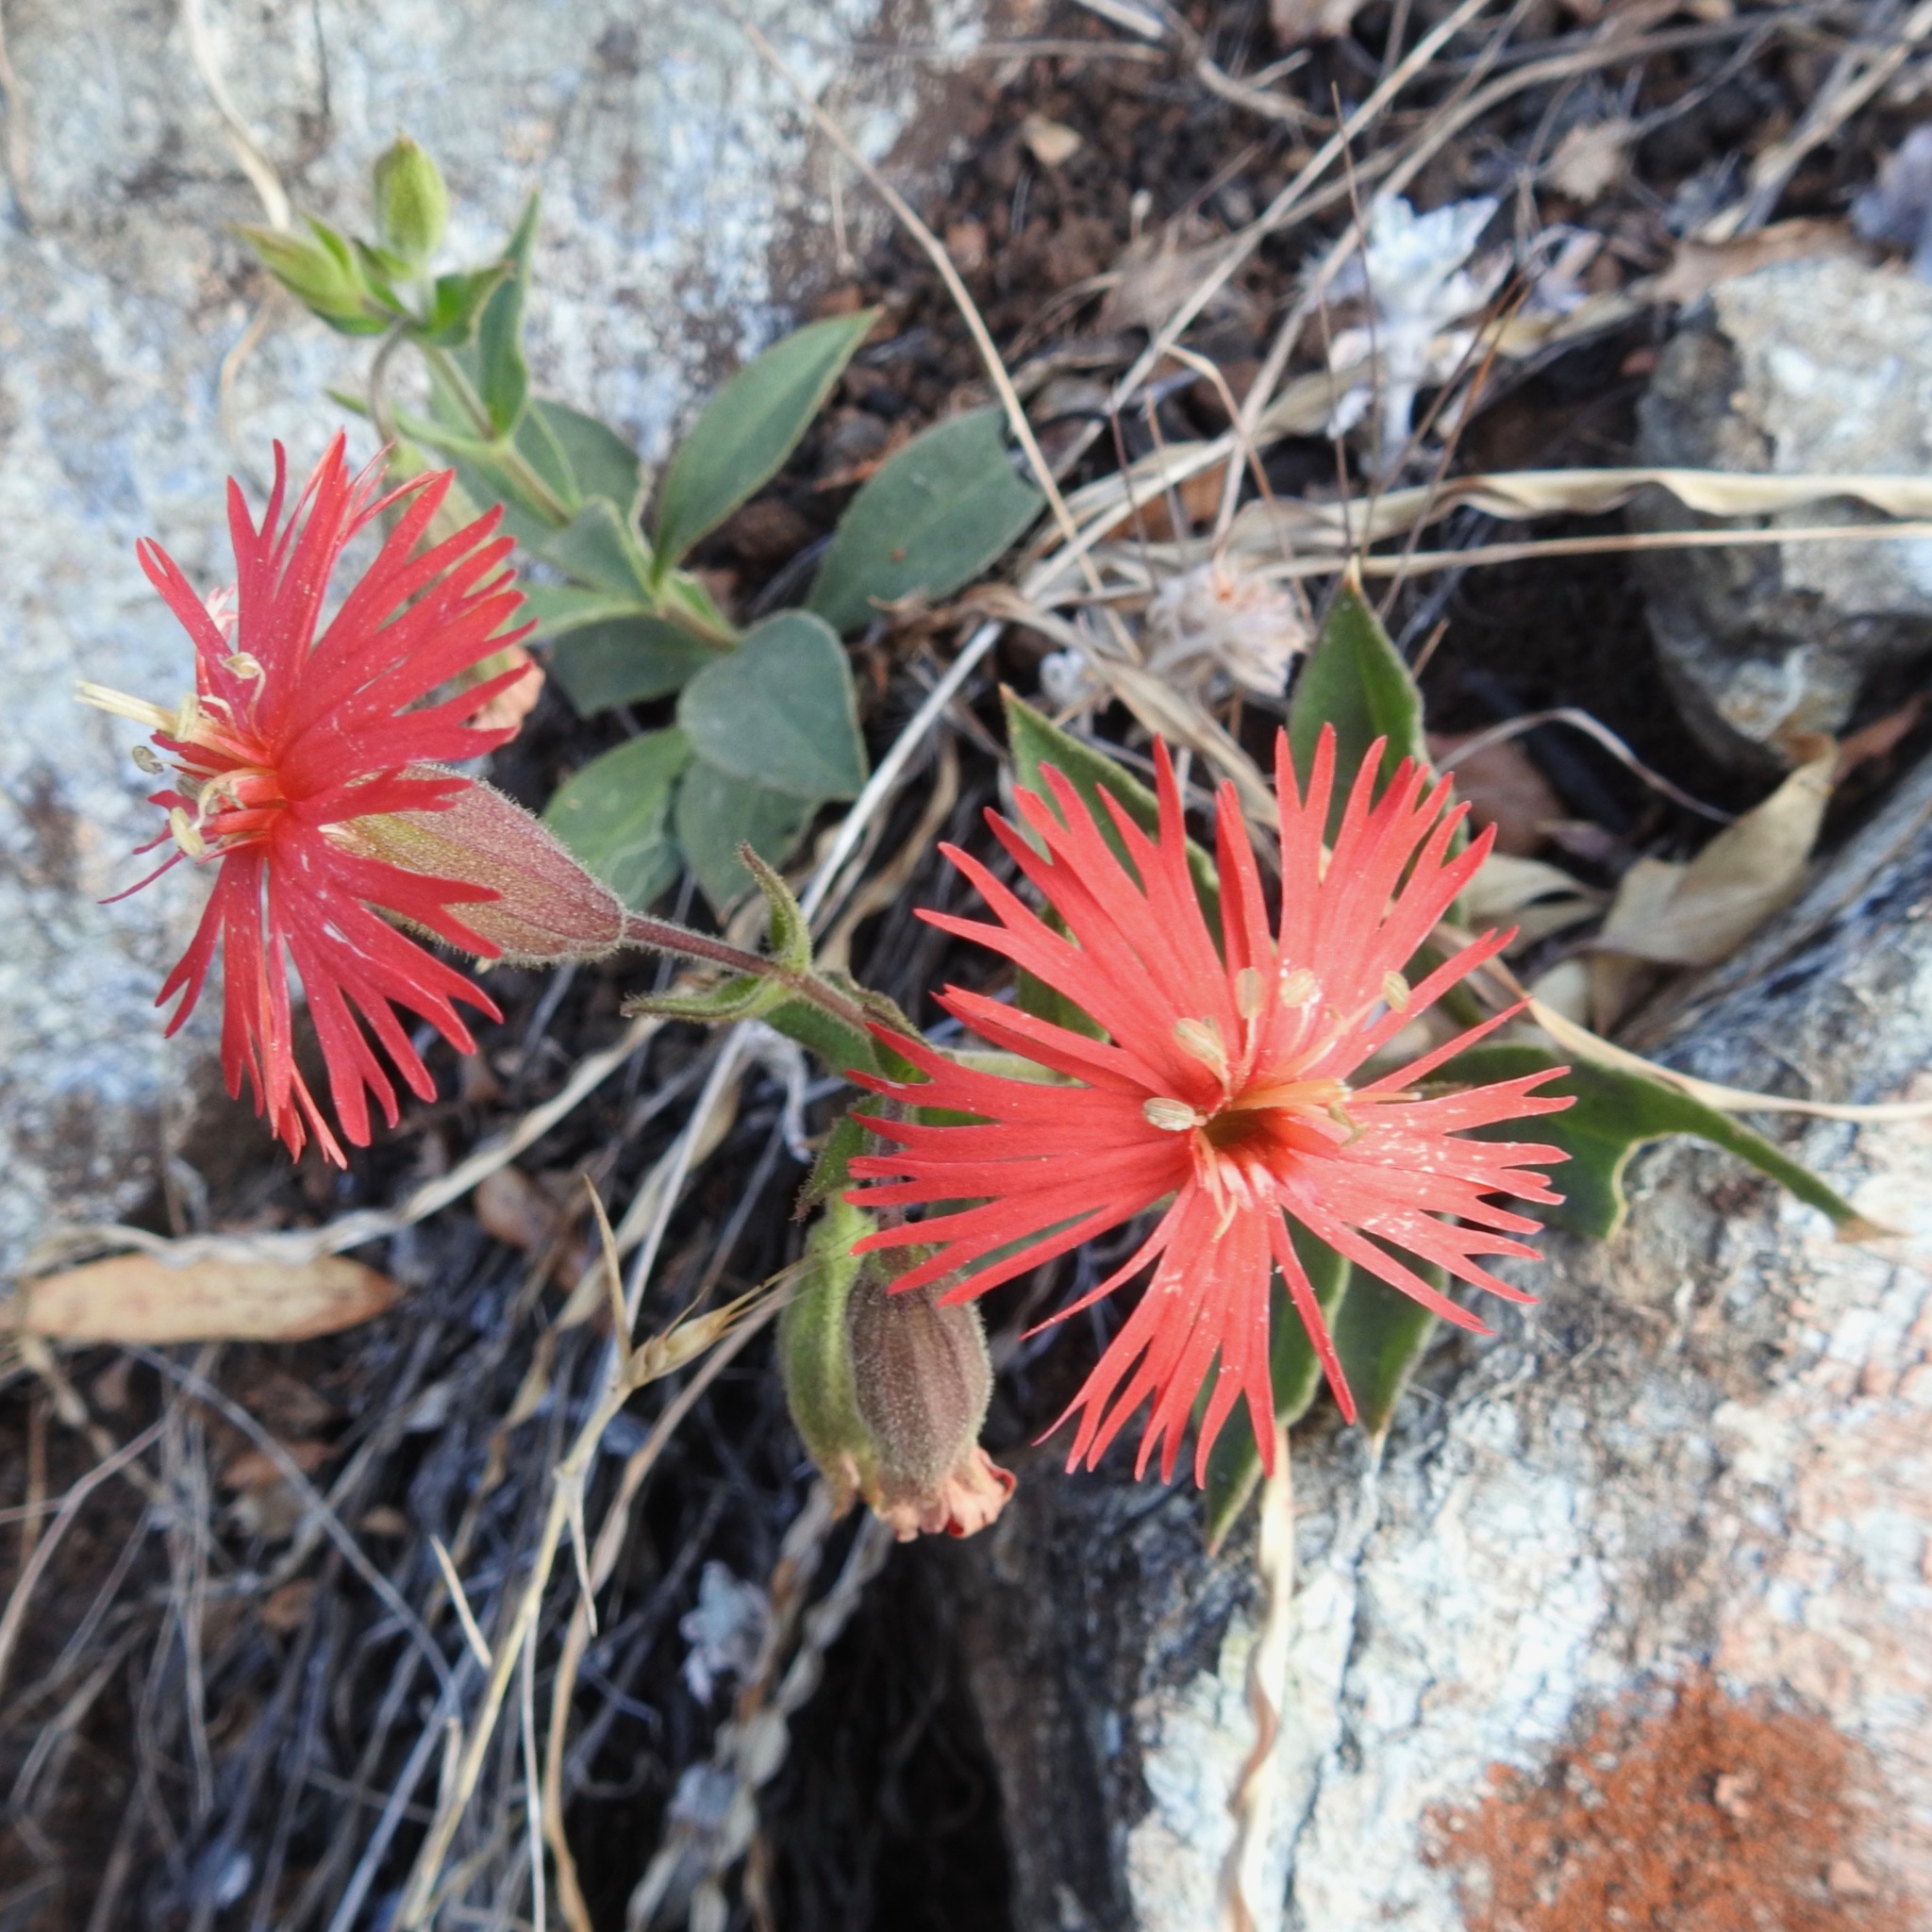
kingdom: Plantae
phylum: Tracheophyta
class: Magnoliopsida
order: Caryophyllales
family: Caryophyllaceae
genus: Silene
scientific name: Silene laciniata
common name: Indian-pink
